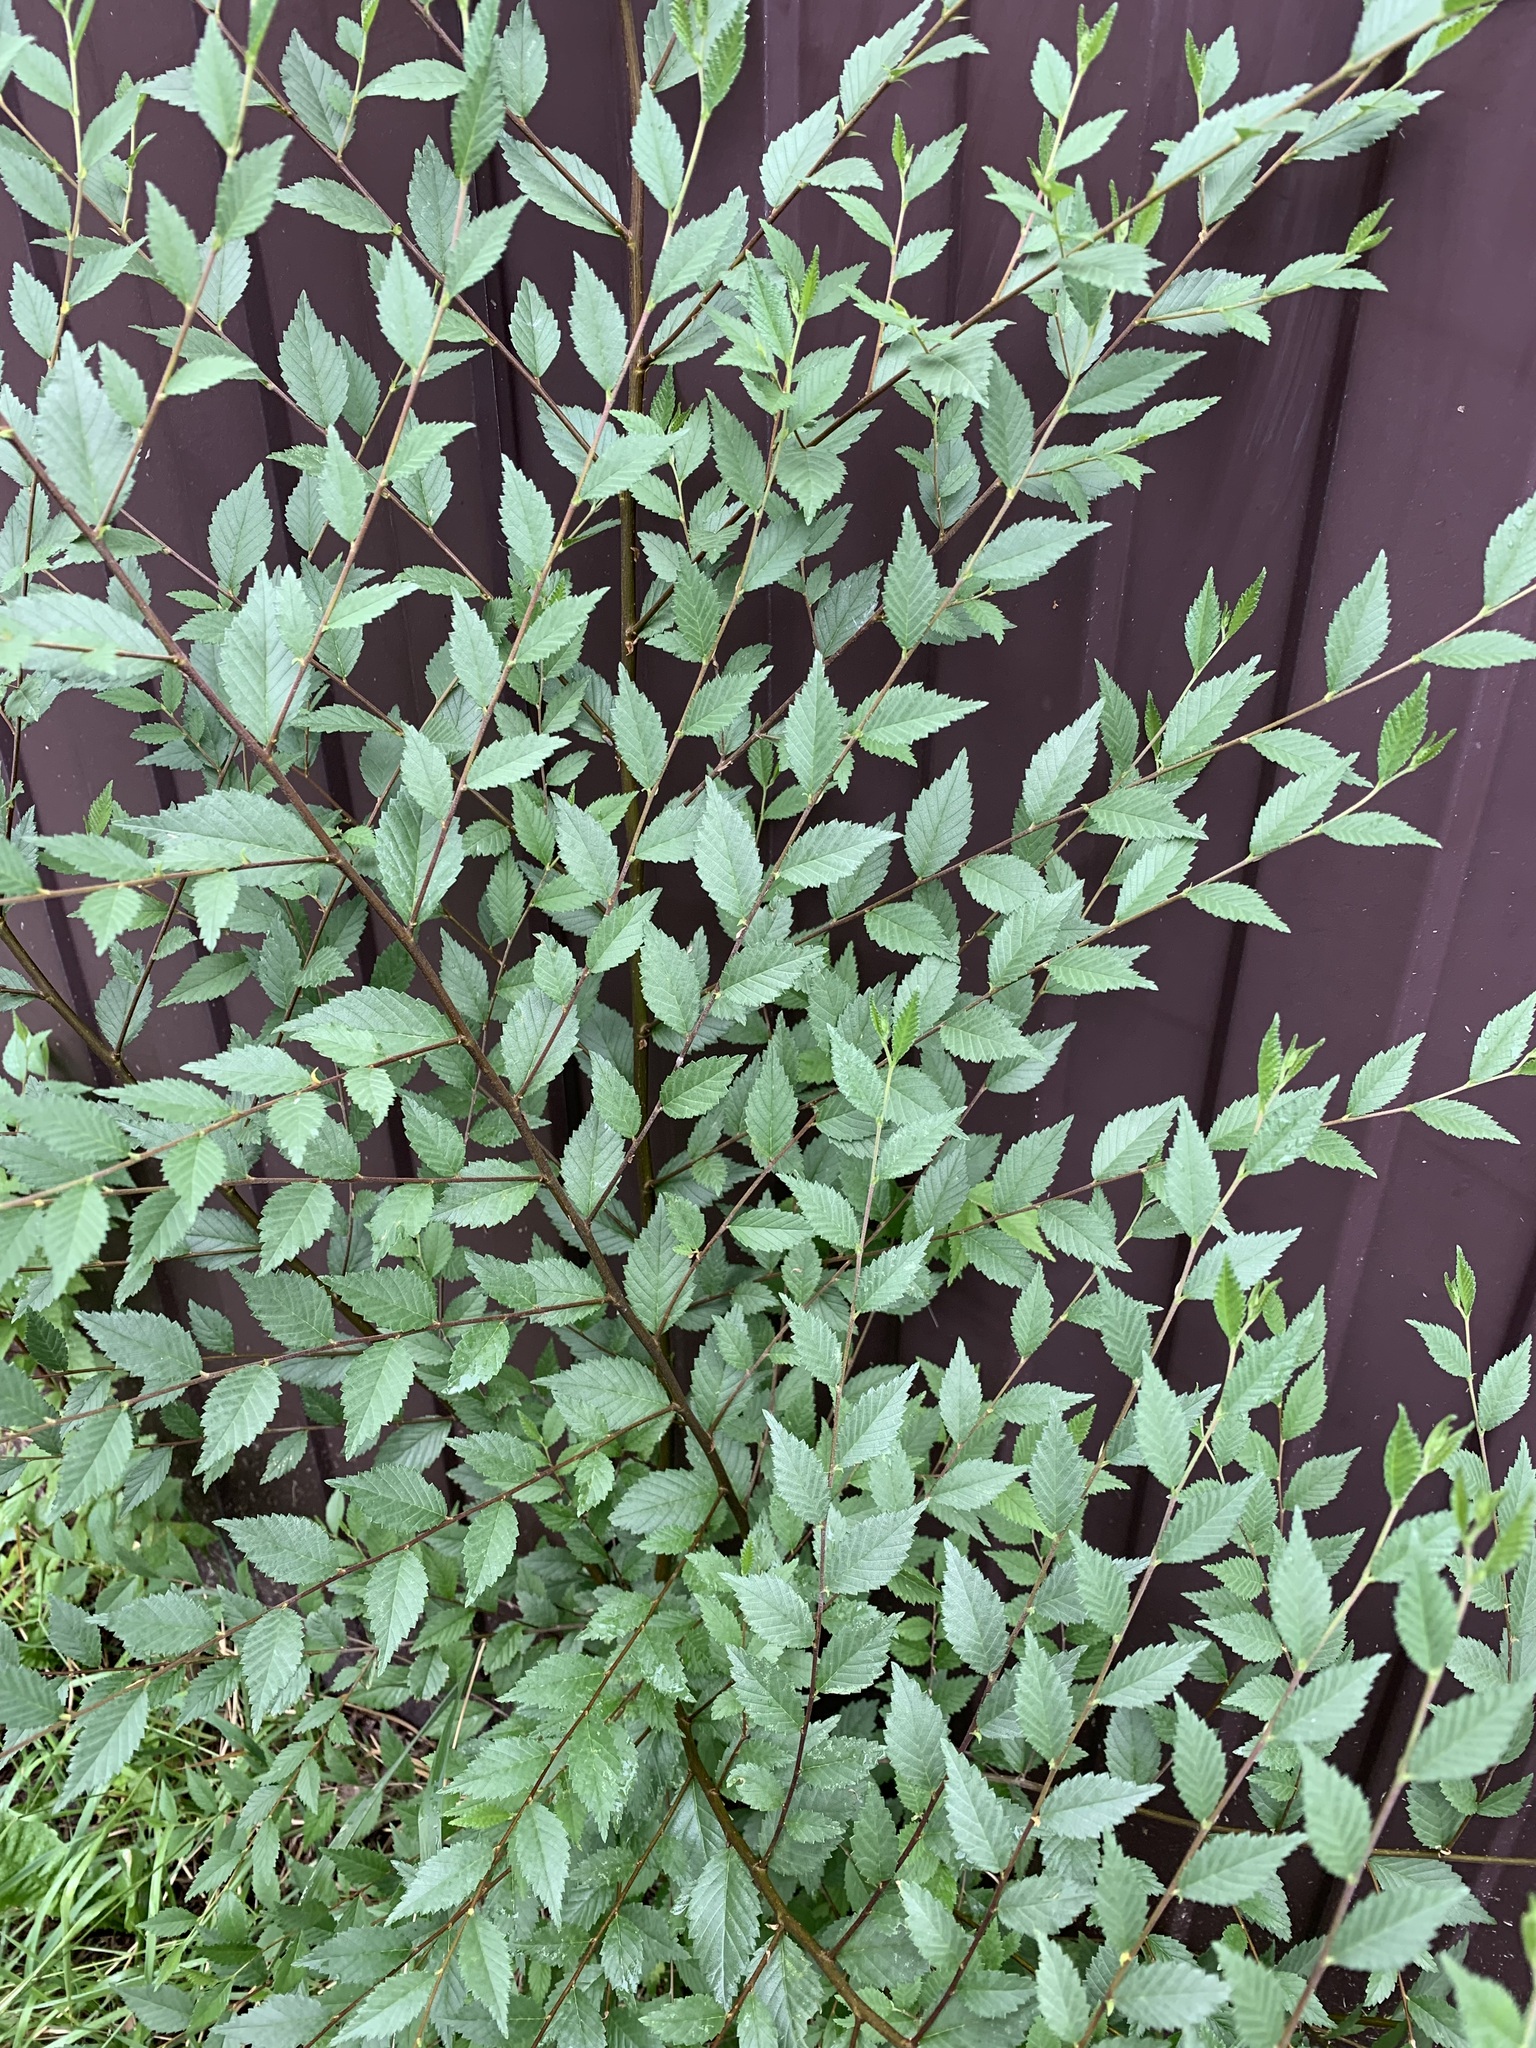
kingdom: Plantae
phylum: Tracheophyta
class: Magnoliopsida
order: Rosales
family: Ulmaceae
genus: Ulmus
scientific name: Ulmus pumila
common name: Siberian elm
